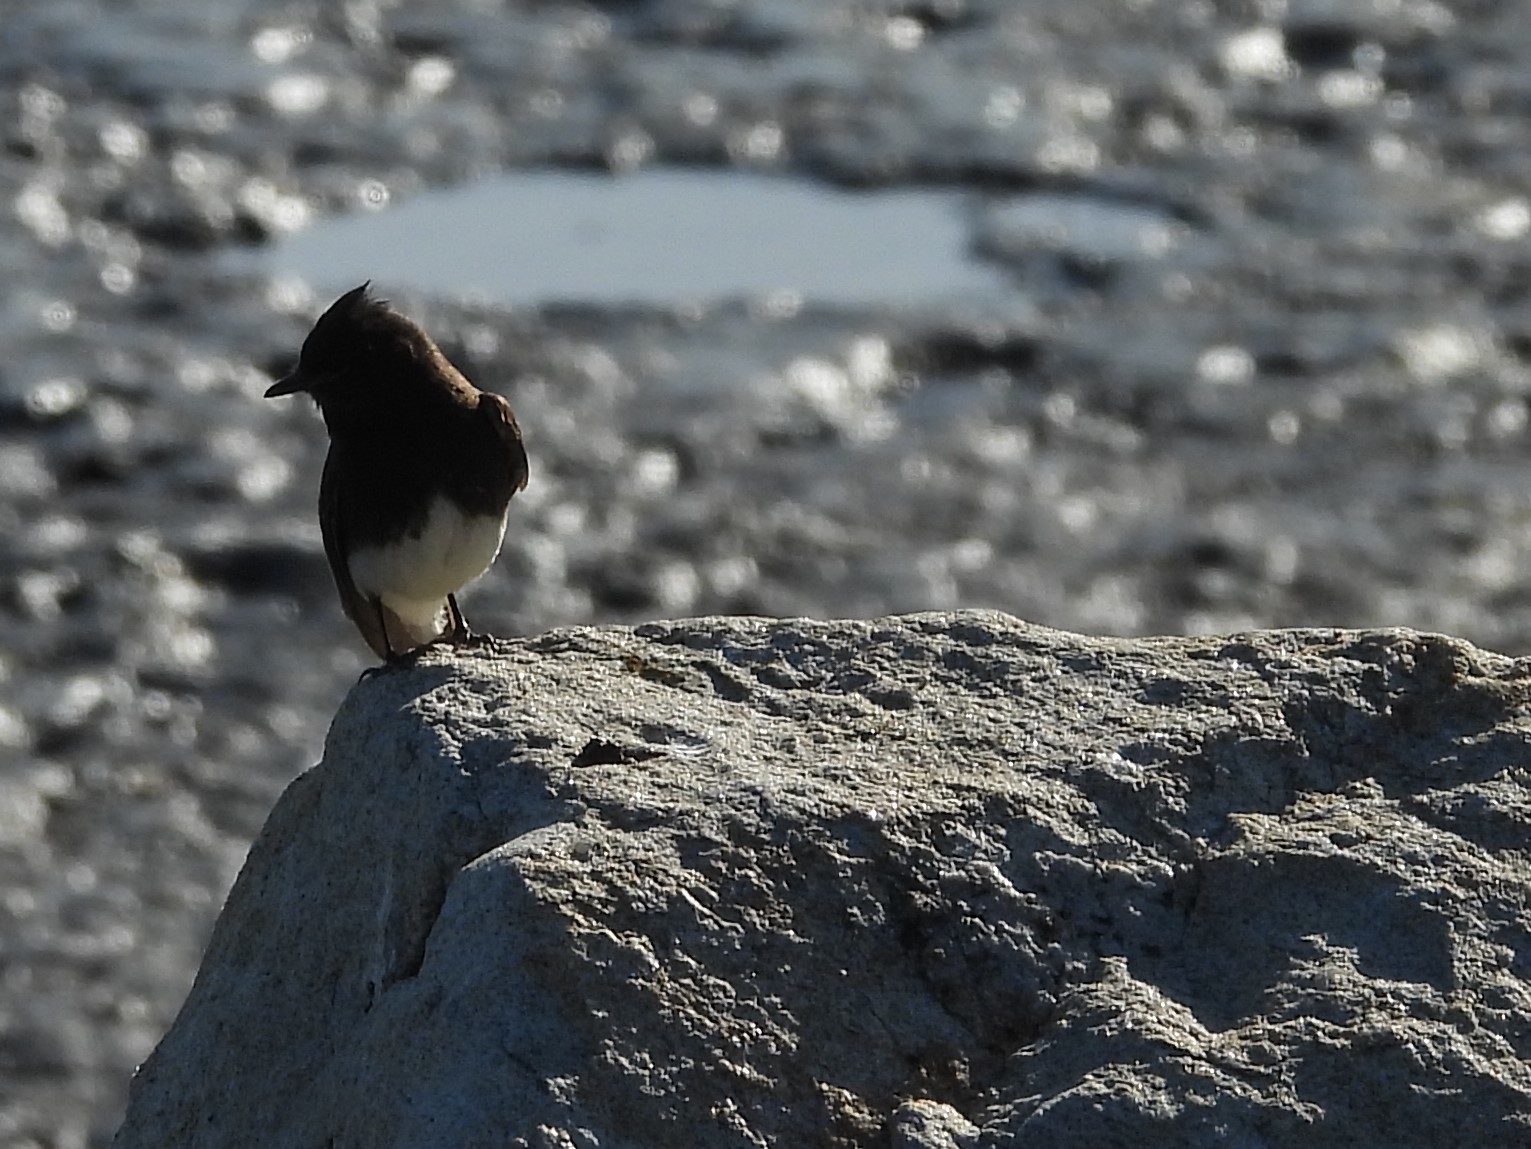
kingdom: Animalia
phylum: Chordata
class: Aves
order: Passeriformes
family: Tyrannidae
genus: Sayornis
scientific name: Sayornis nigricans
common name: Black phoebe
